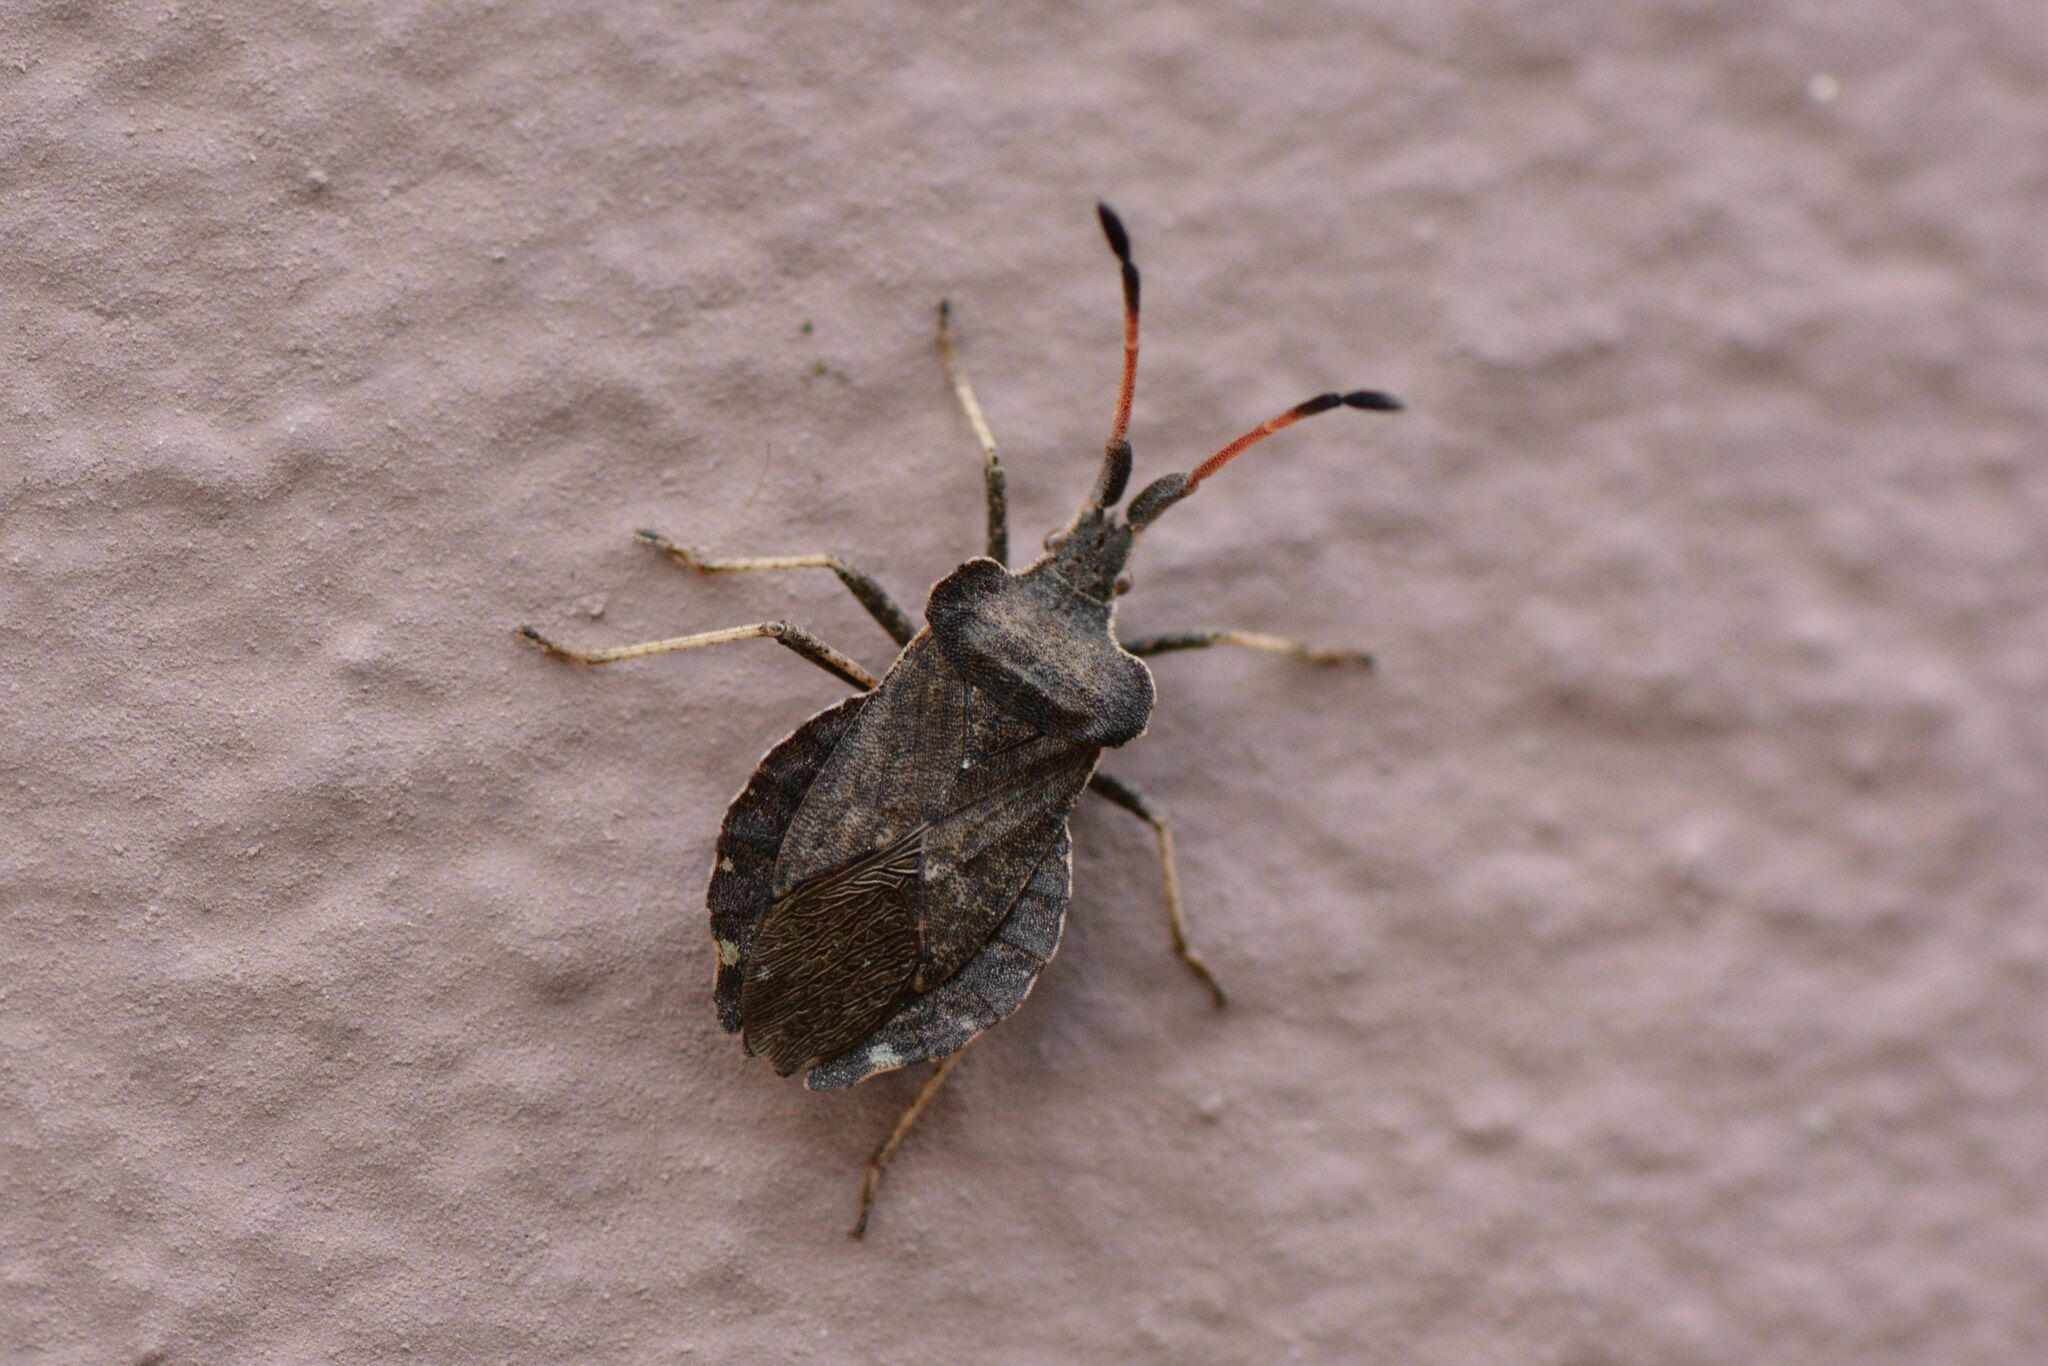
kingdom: Animalia
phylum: Arthropoda
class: Insecta
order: Hemiptera
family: Coreidae
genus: Enoplops
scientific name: Enoplops scapha
